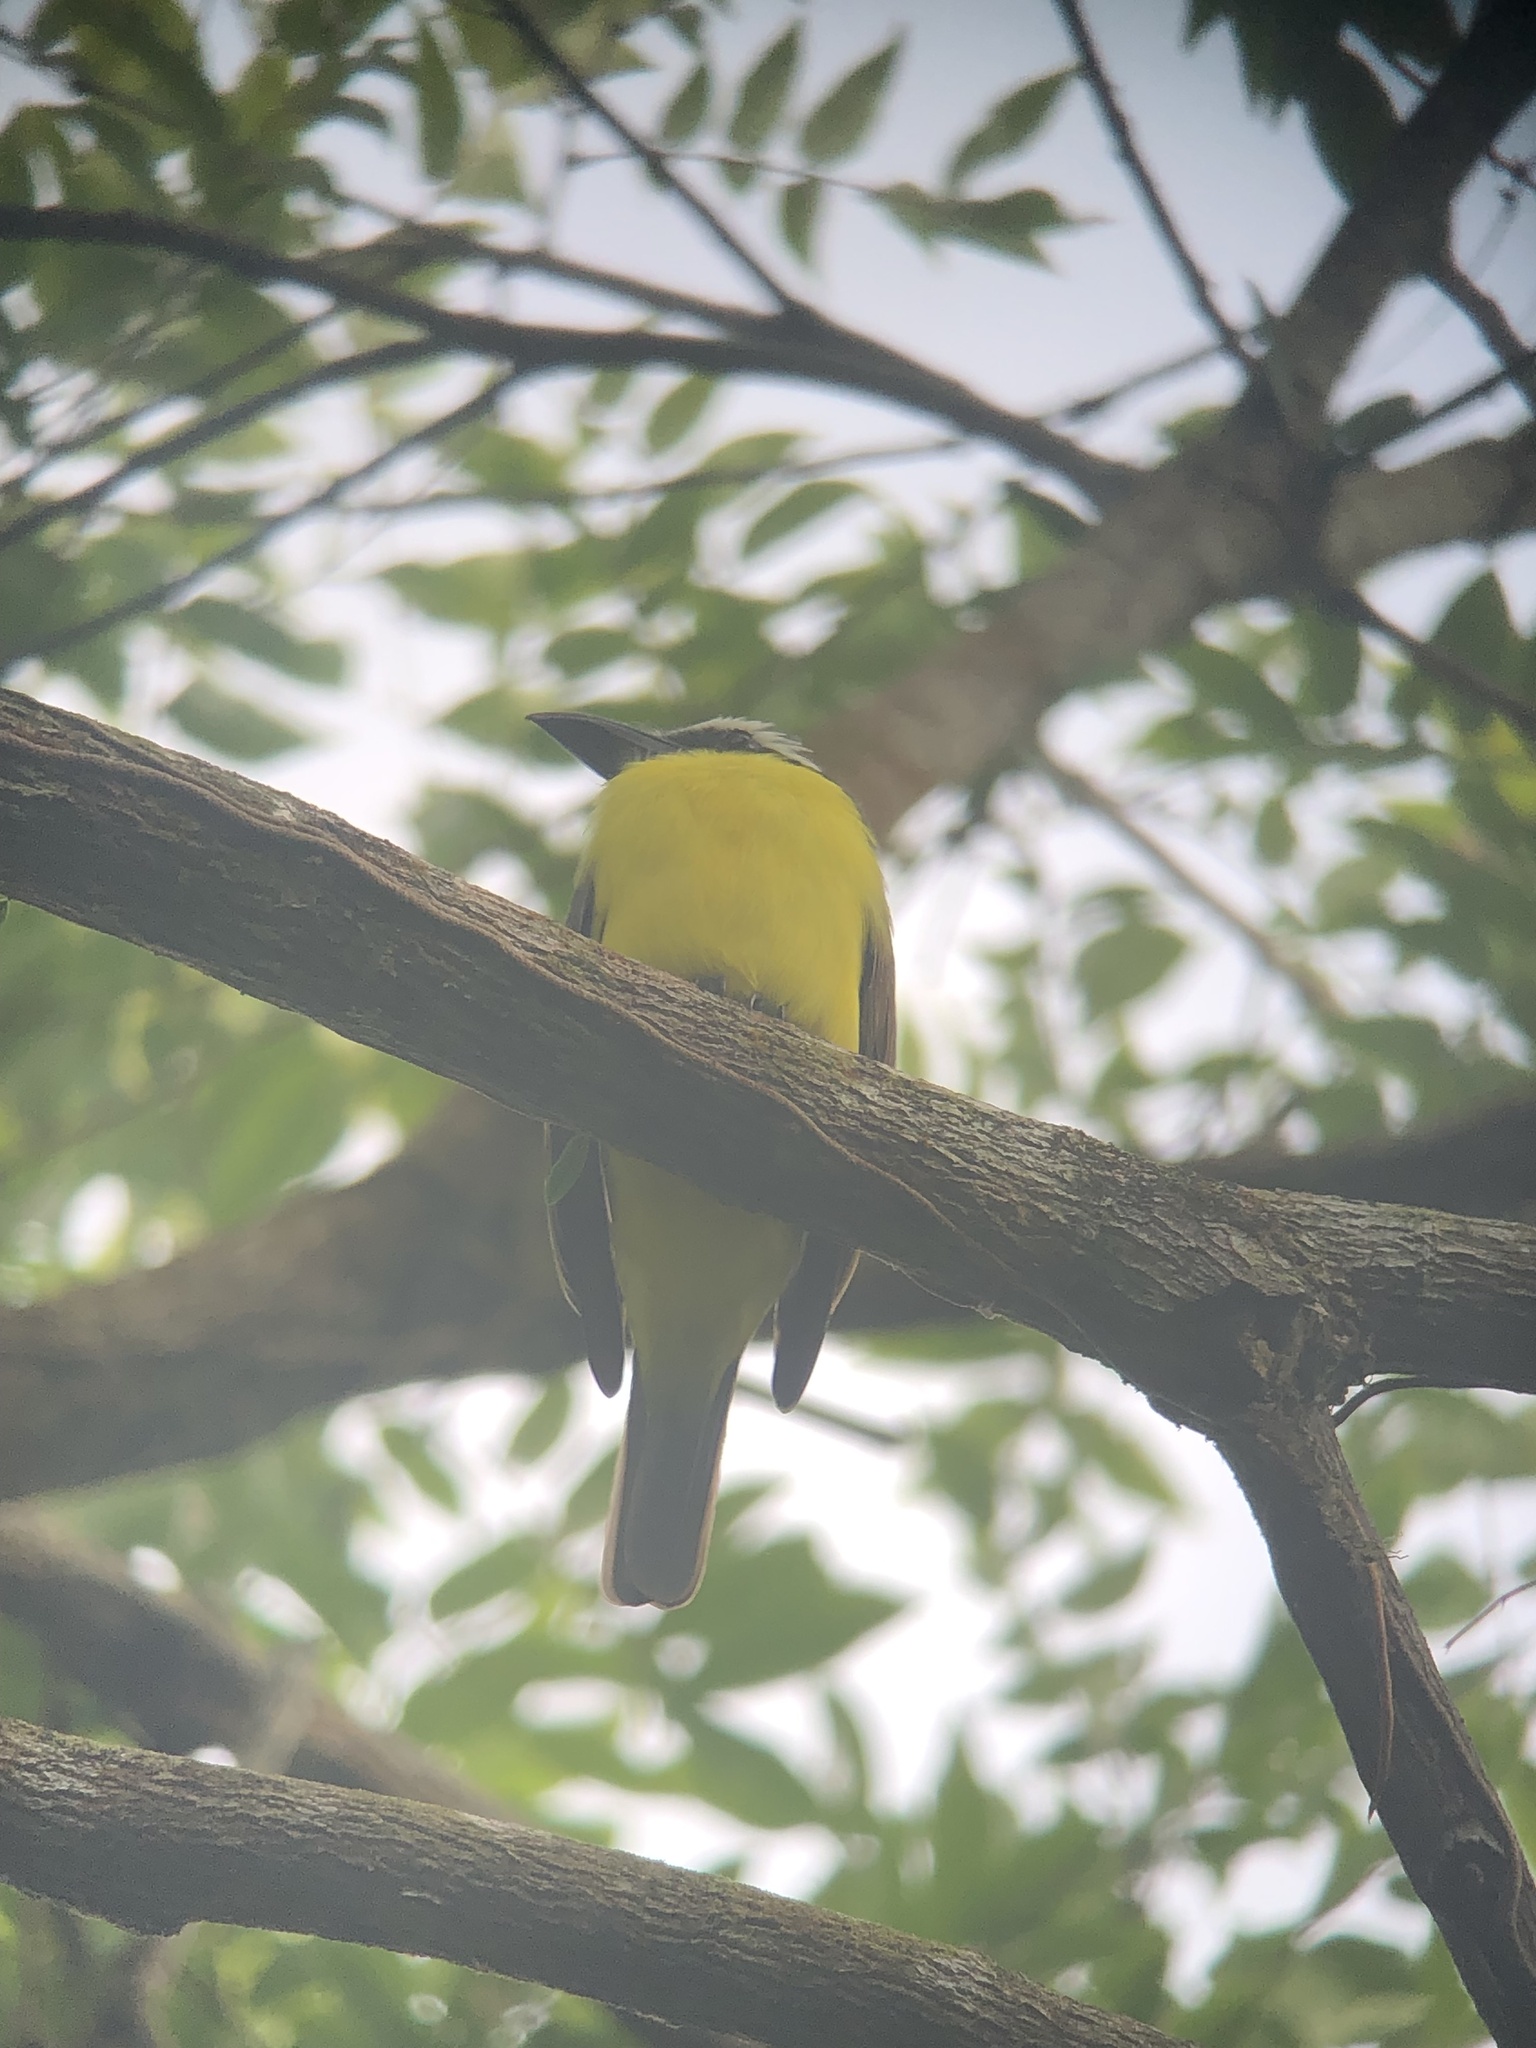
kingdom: Animalia
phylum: Chordata
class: Aves
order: Passeriformes
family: Tyrannidae
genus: Megarynchus
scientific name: Megarynchus pitangua
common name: Boat-billed flycatcher
